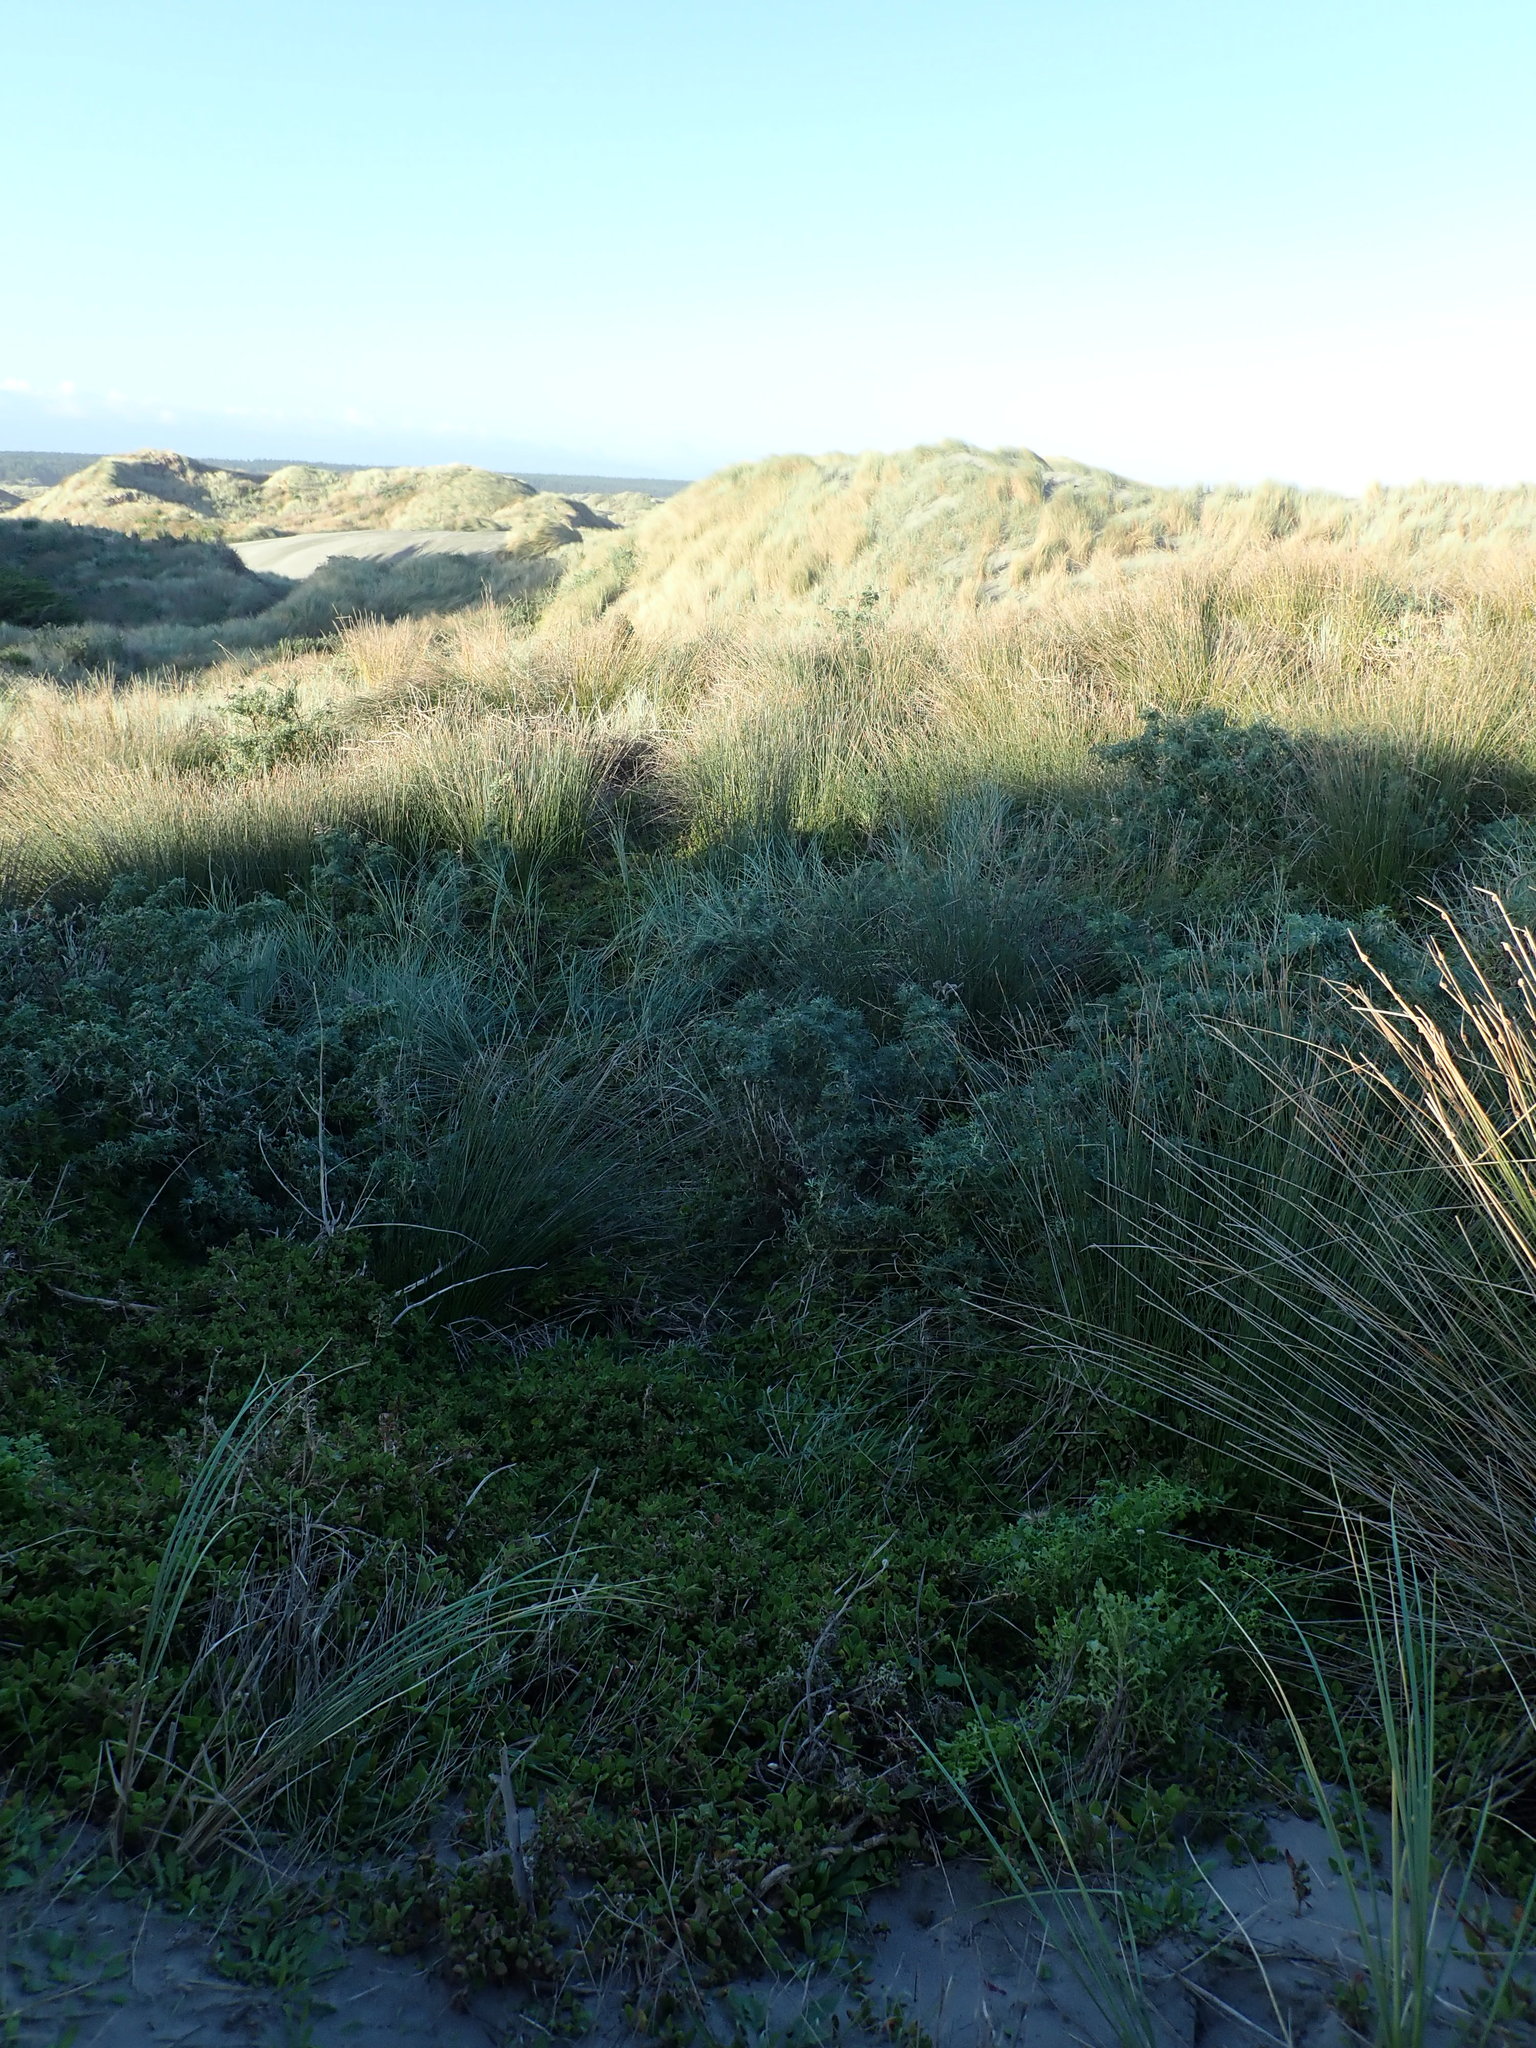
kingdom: Plantae
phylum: Tracheophyta
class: Magnoliopsida
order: Fabales
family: Fabaceae
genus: Lupinus
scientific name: Lupinus arboreus
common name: Yellow bush lupine
